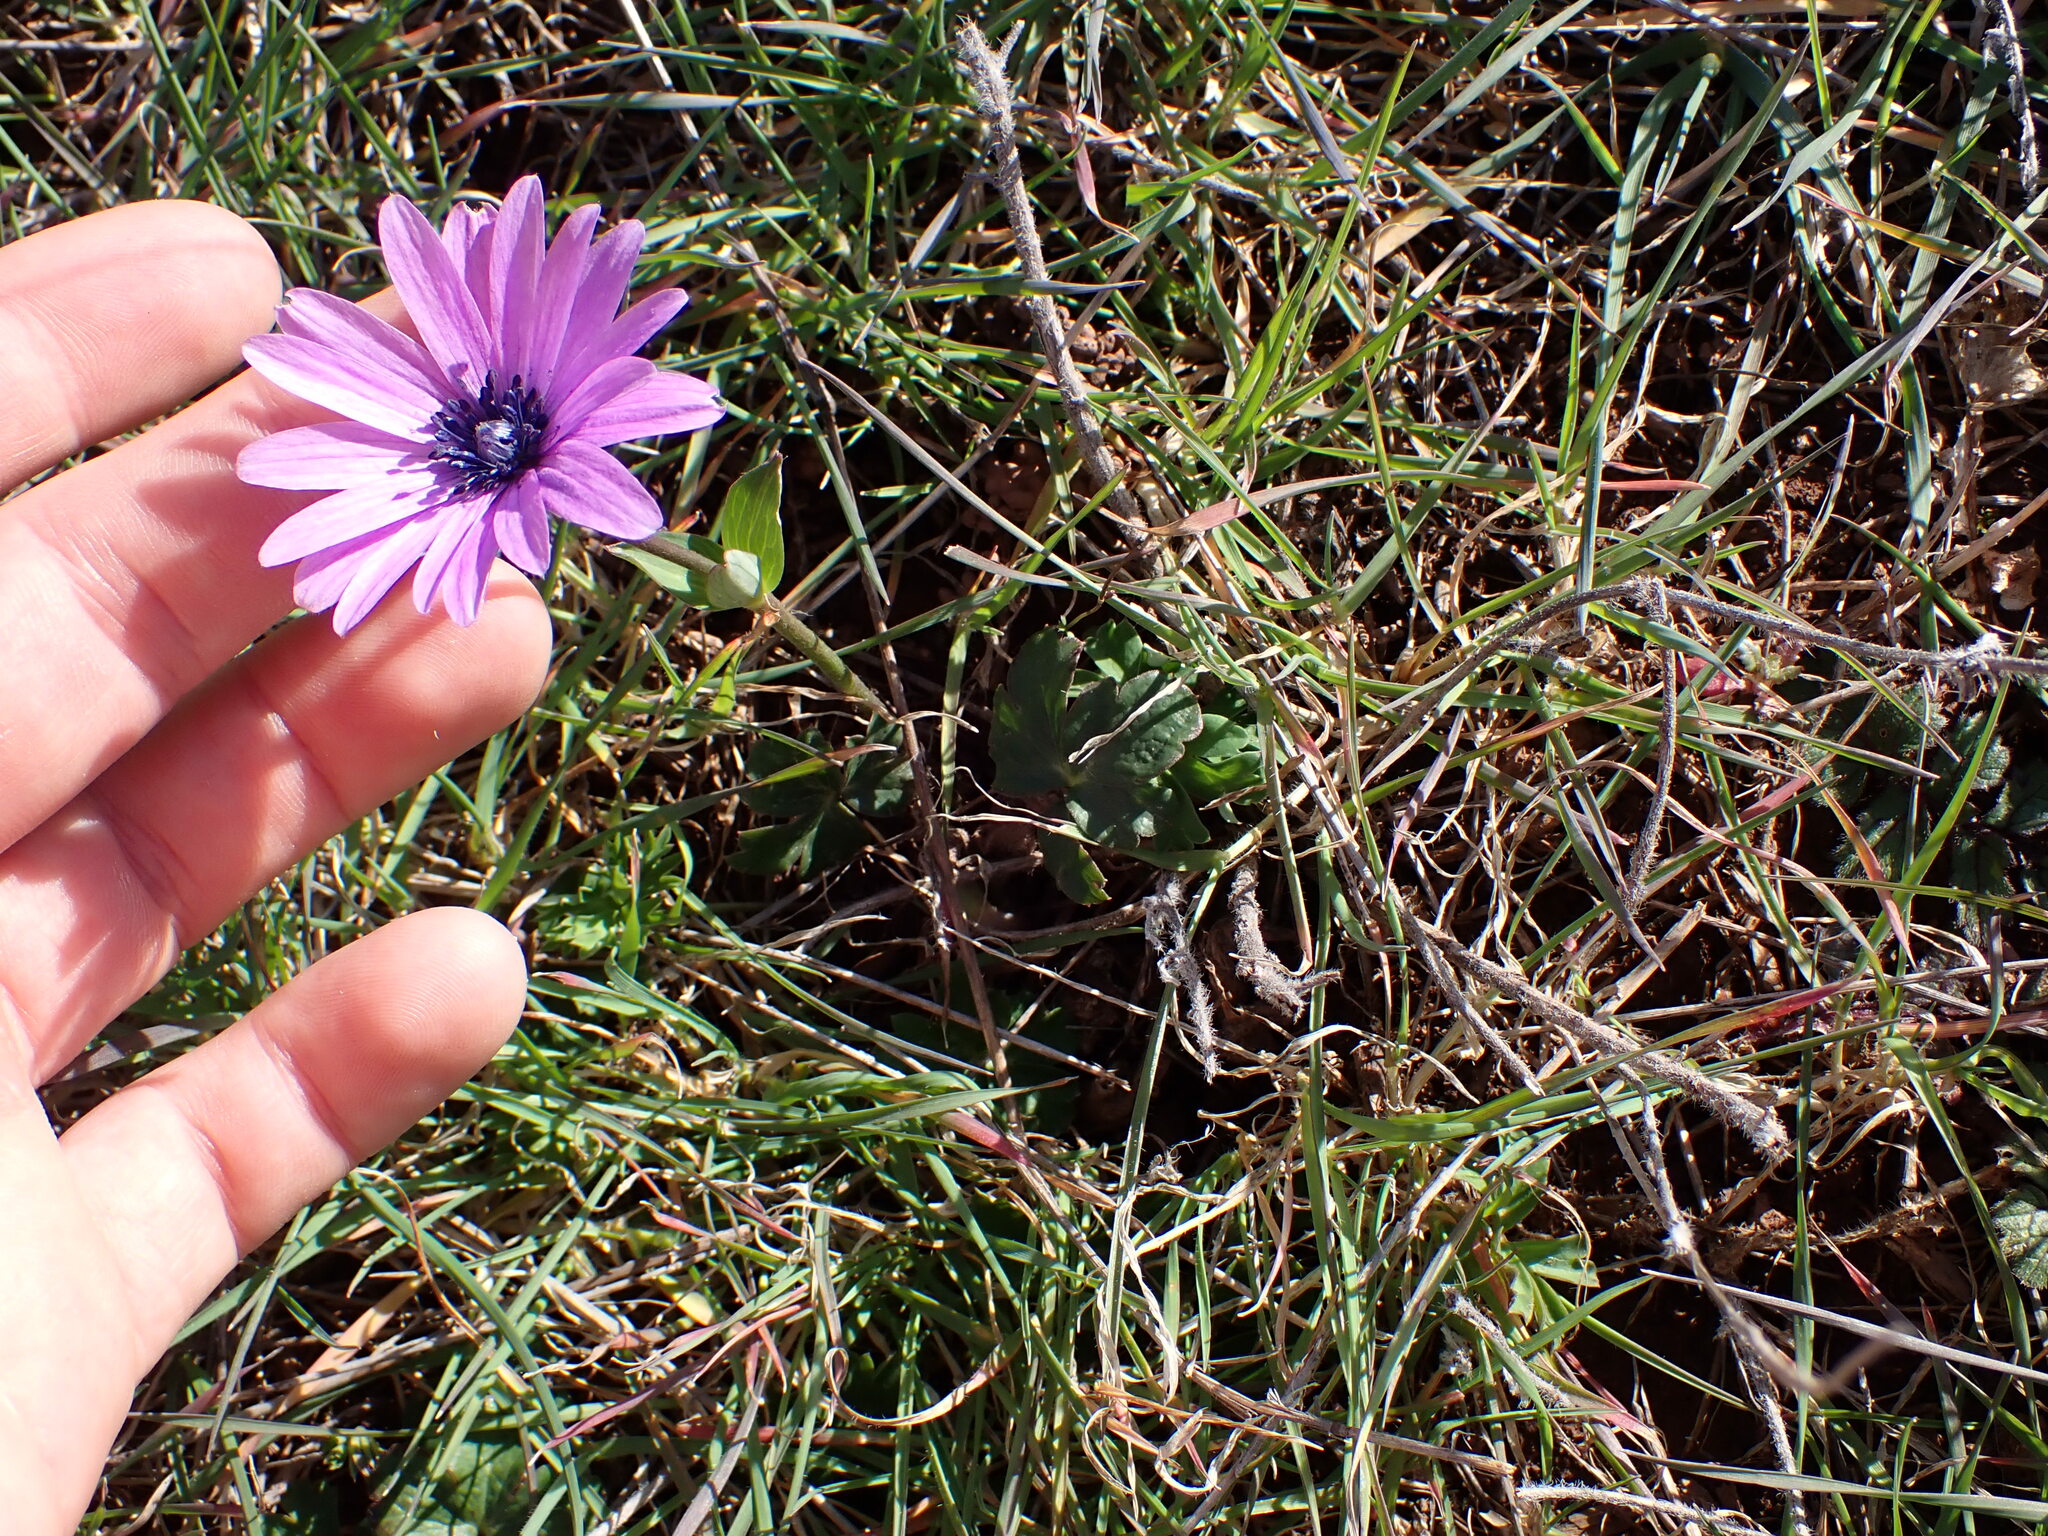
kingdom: Plantae
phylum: Tracheophyta
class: Magnoliopsida
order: Ranunculales
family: Ranunculaceae
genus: Anemone
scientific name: Anemone hortensis
